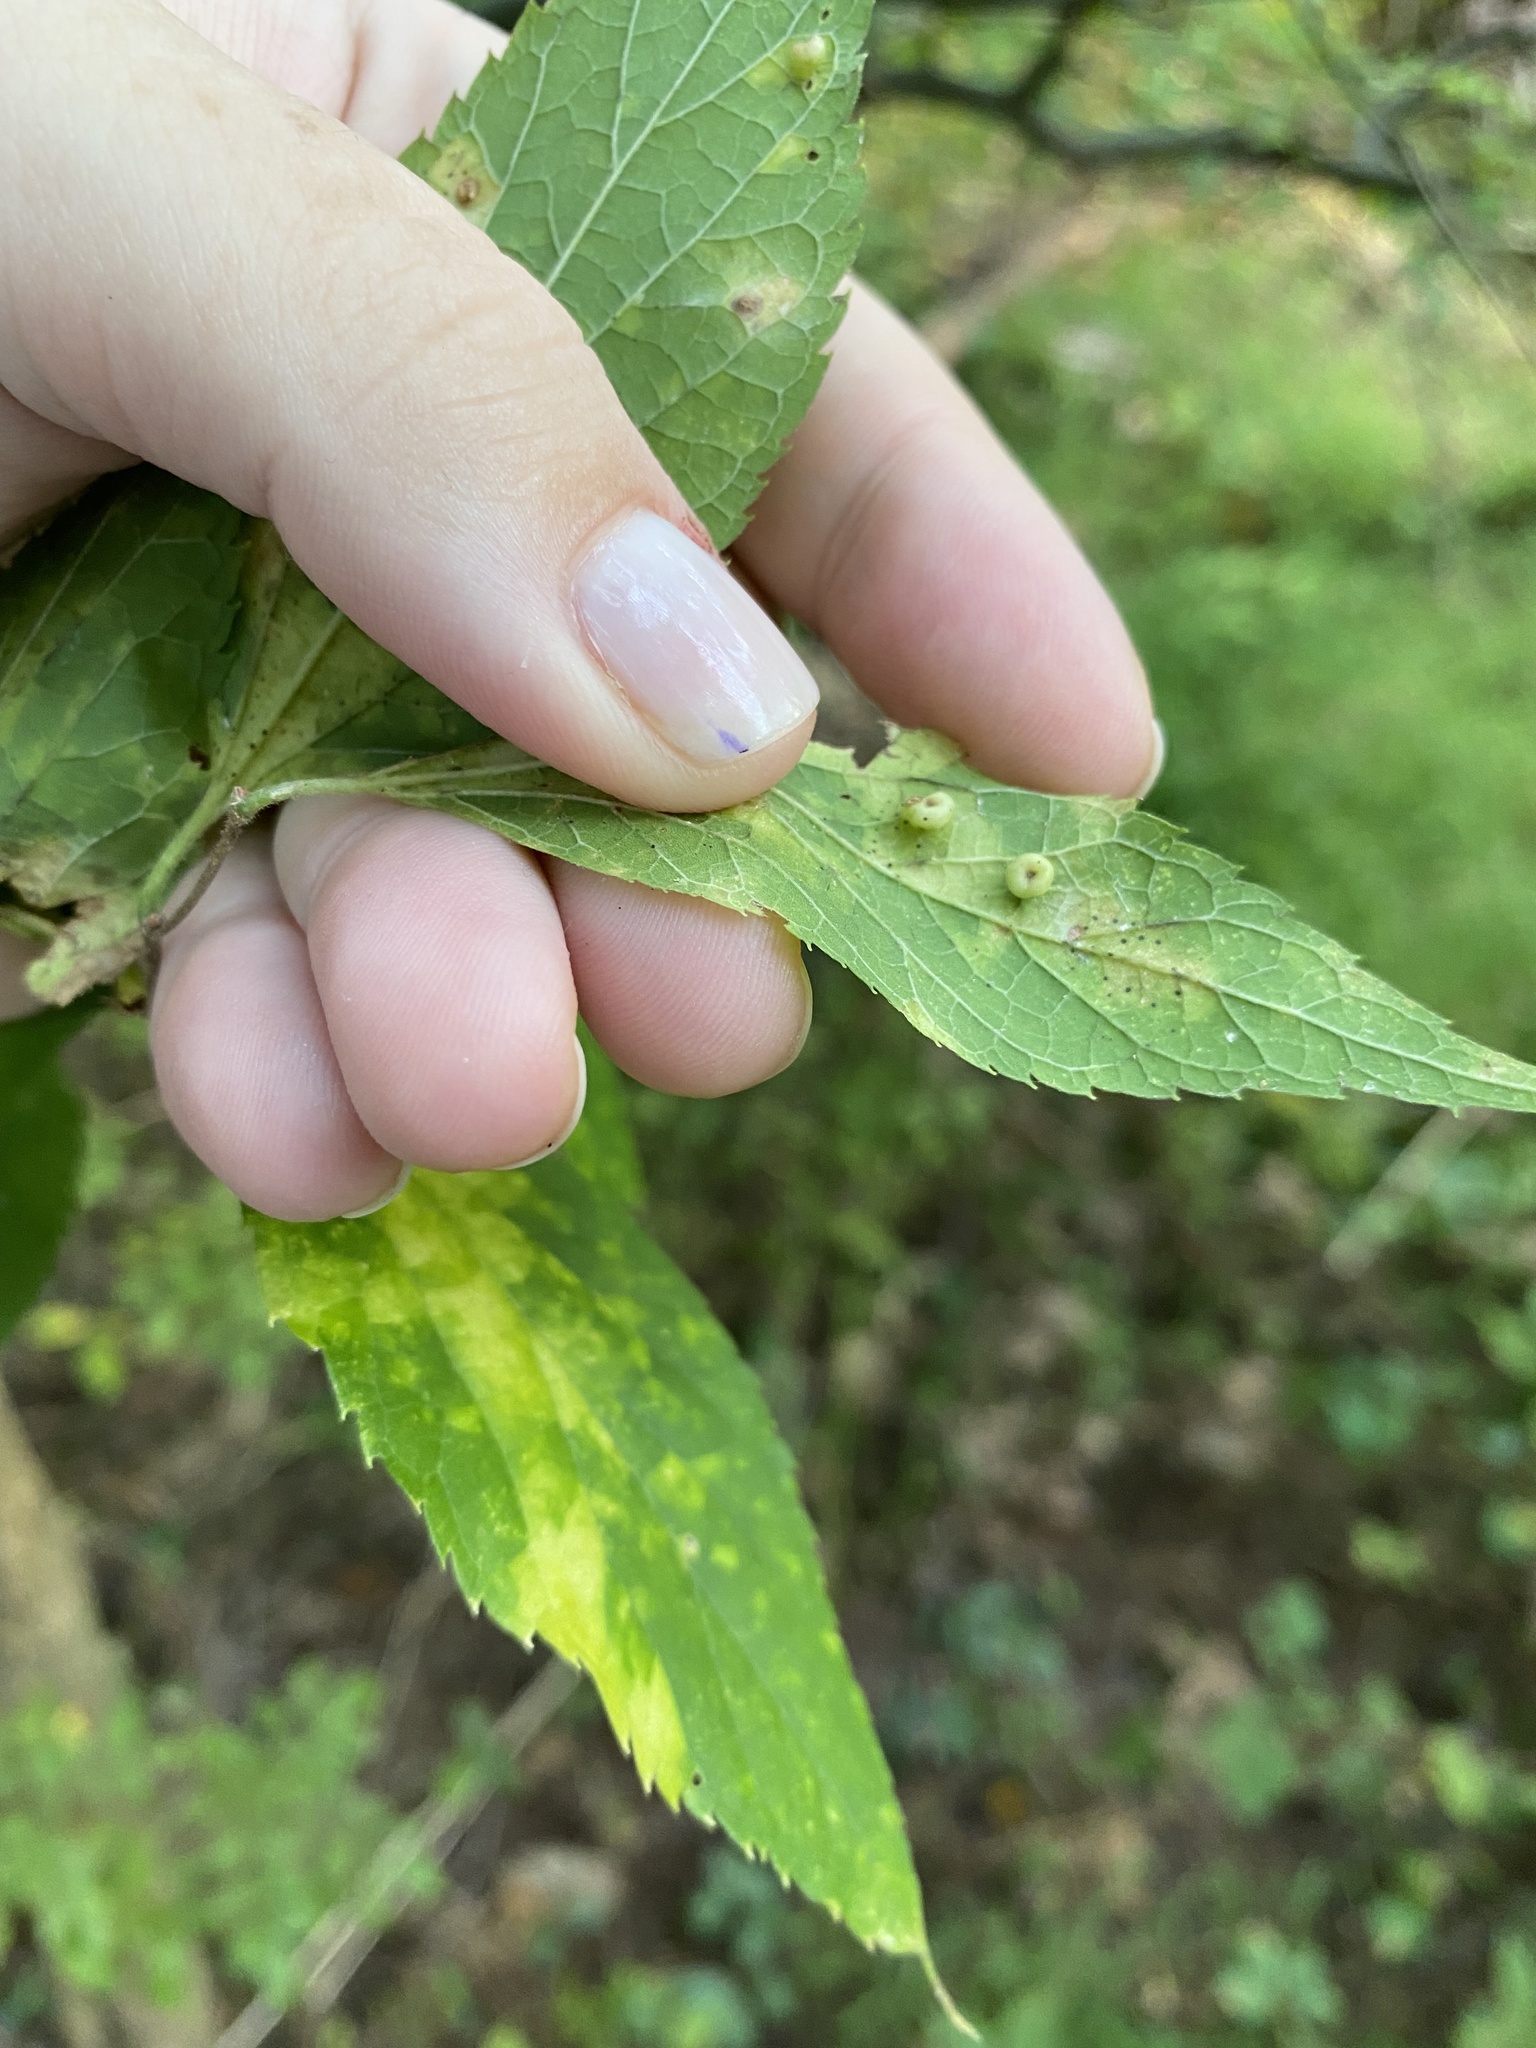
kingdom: Animalia
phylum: Arthropoda
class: Insecta
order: Hemiptera
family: Aphalaridae
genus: Pachypsylla
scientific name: Pachypsylla celtidismamma
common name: Hackberry nipplegall psyllid
